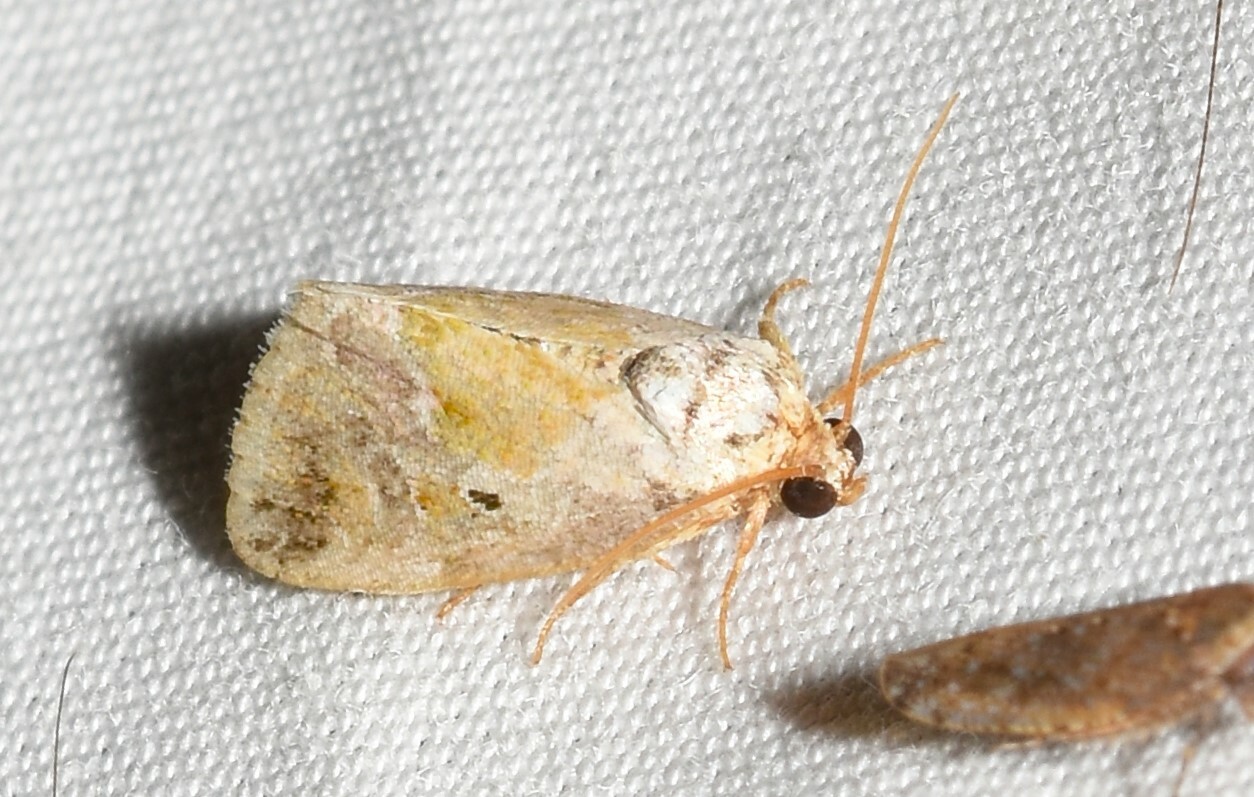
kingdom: Animalia
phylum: Arthropoda
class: Insecta
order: Lepidoptera
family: Noctuidae
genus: Maliattha
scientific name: Maliattha synochitis
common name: Black-dotted glyph
